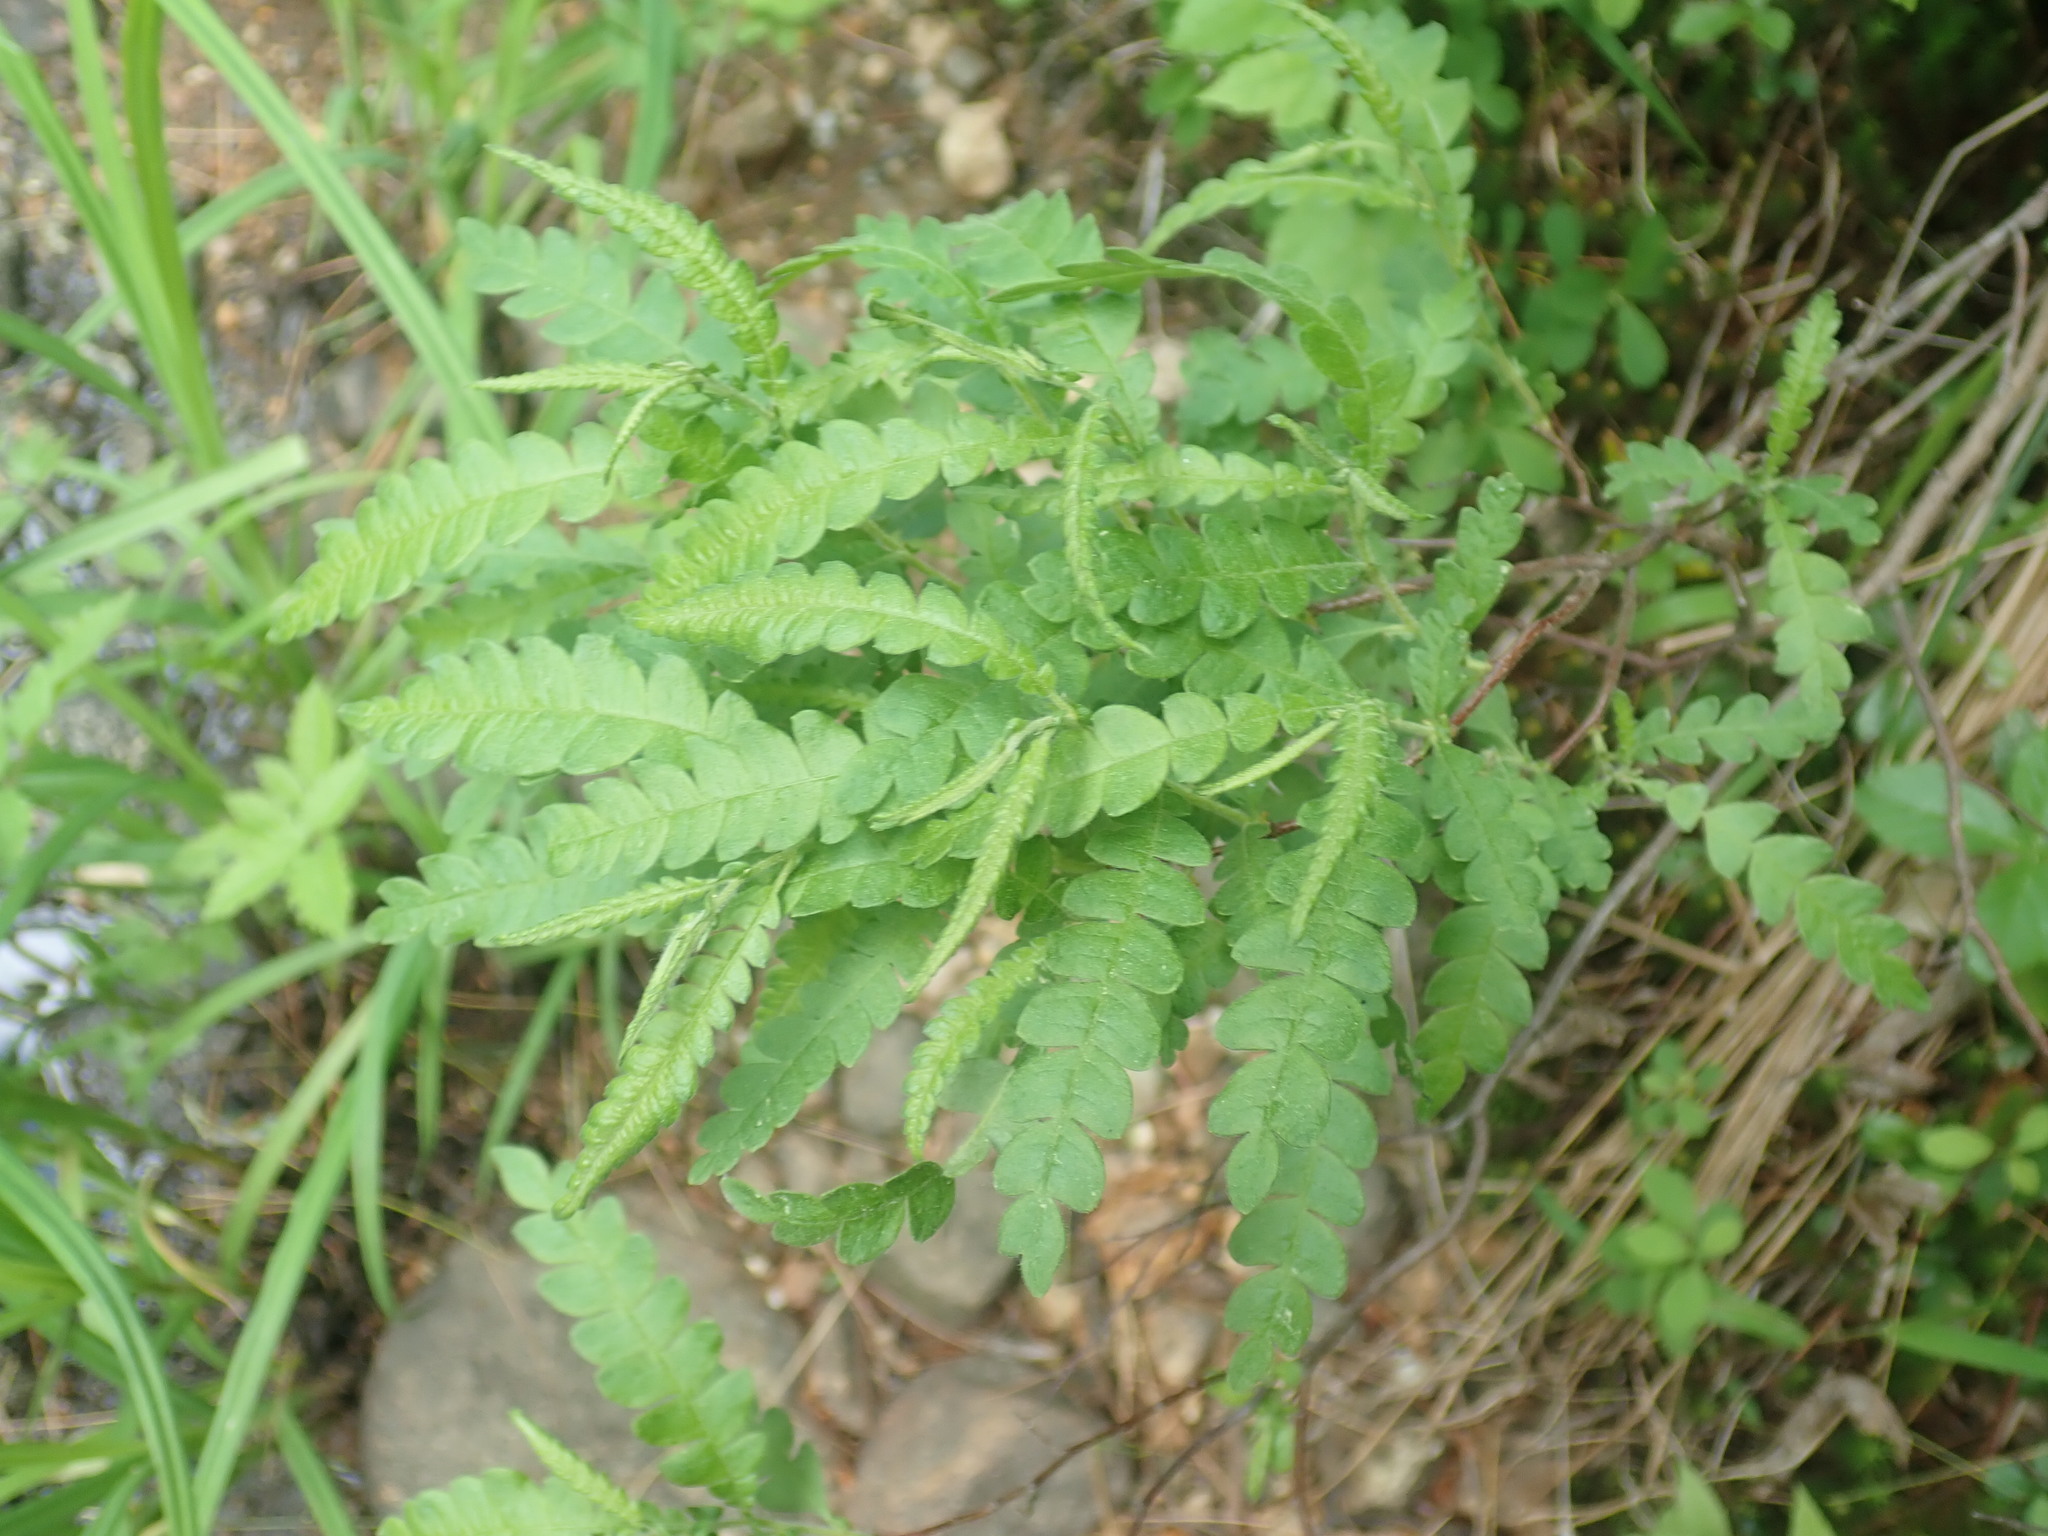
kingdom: Plantae
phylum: Tracheophyta
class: Magnoliopsida
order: Fagales
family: Myricaceae
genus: Comptonia
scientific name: Comptonia peregrina
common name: Sweet-fern
